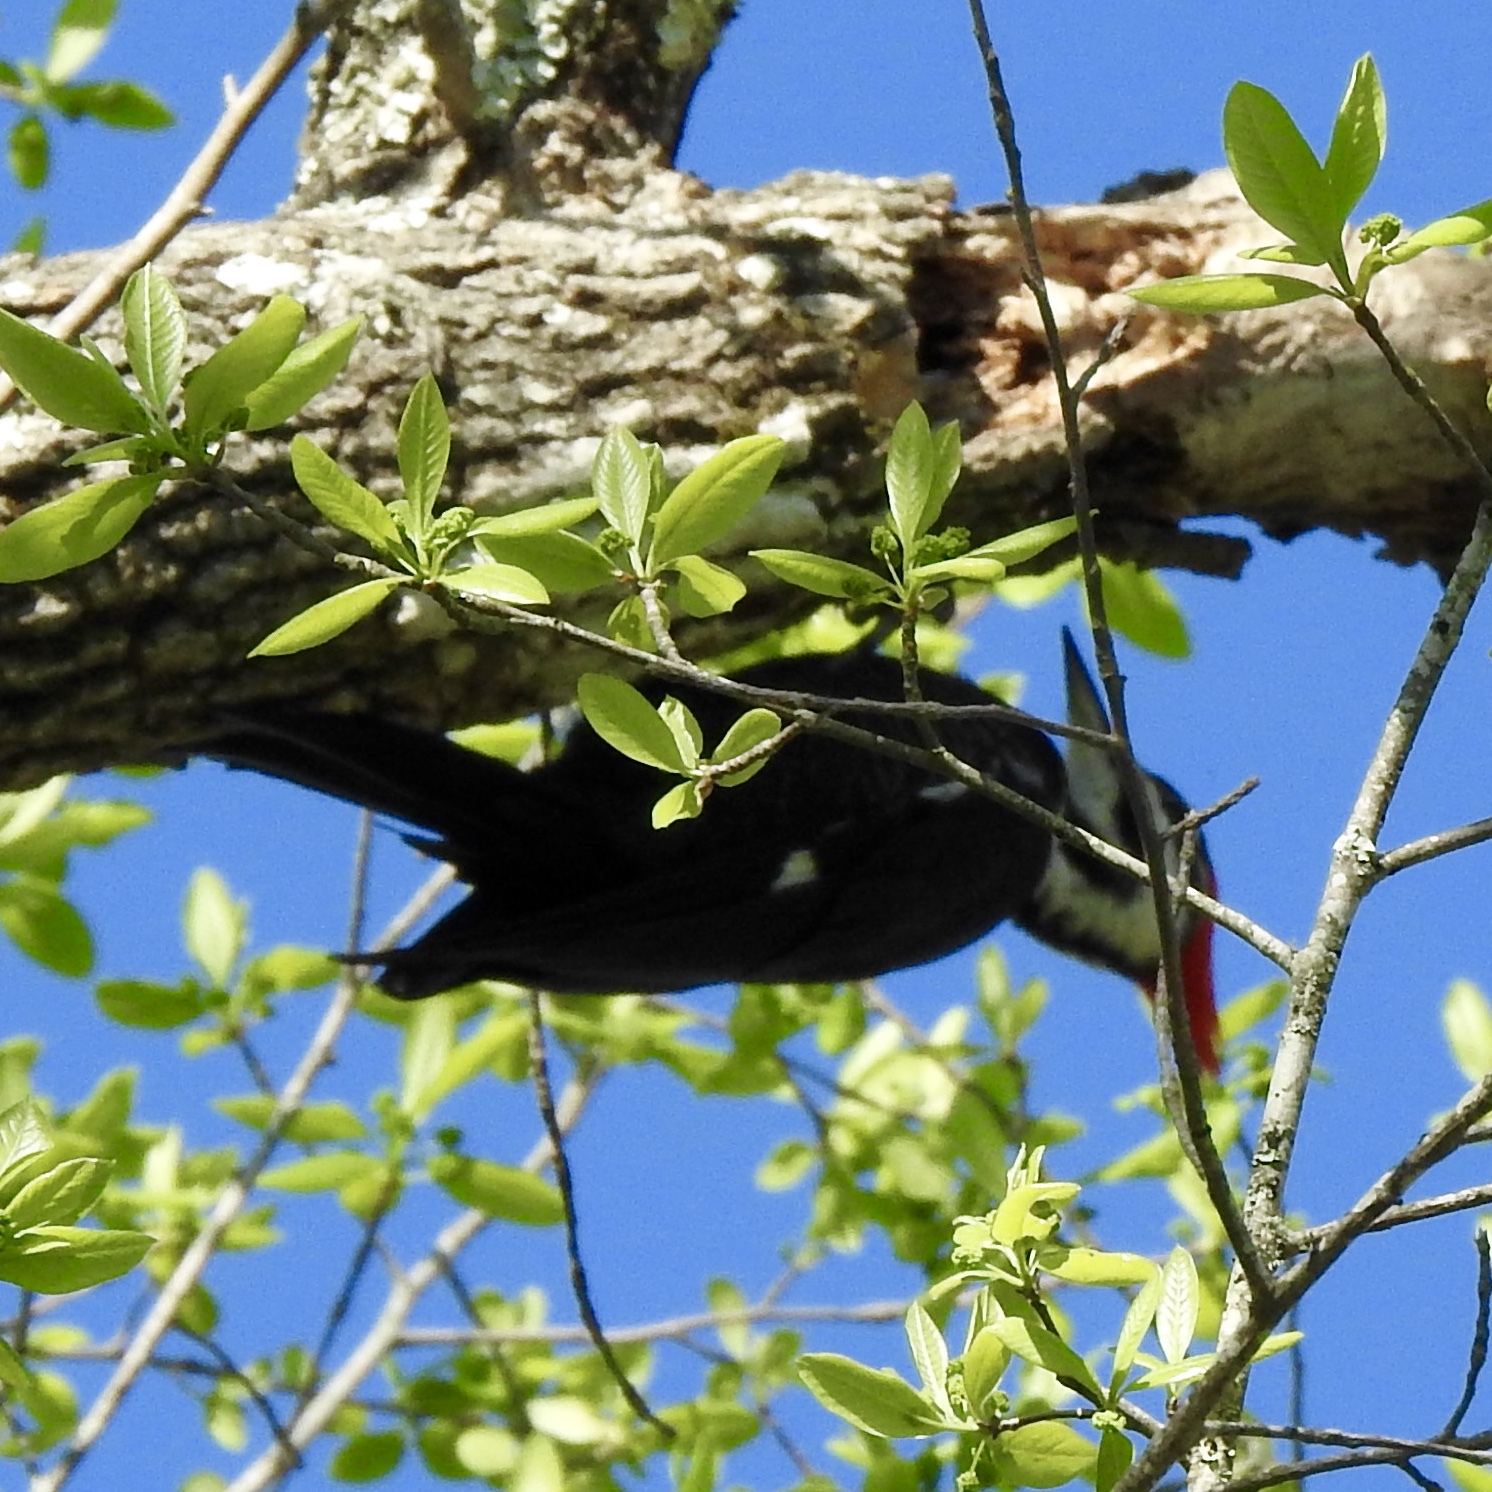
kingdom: Animalia
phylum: Chordata
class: Aves
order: Piciformes
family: Picidae
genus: Dryocopus
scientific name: Dryocopus pileatus
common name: Pileated woodpecker
